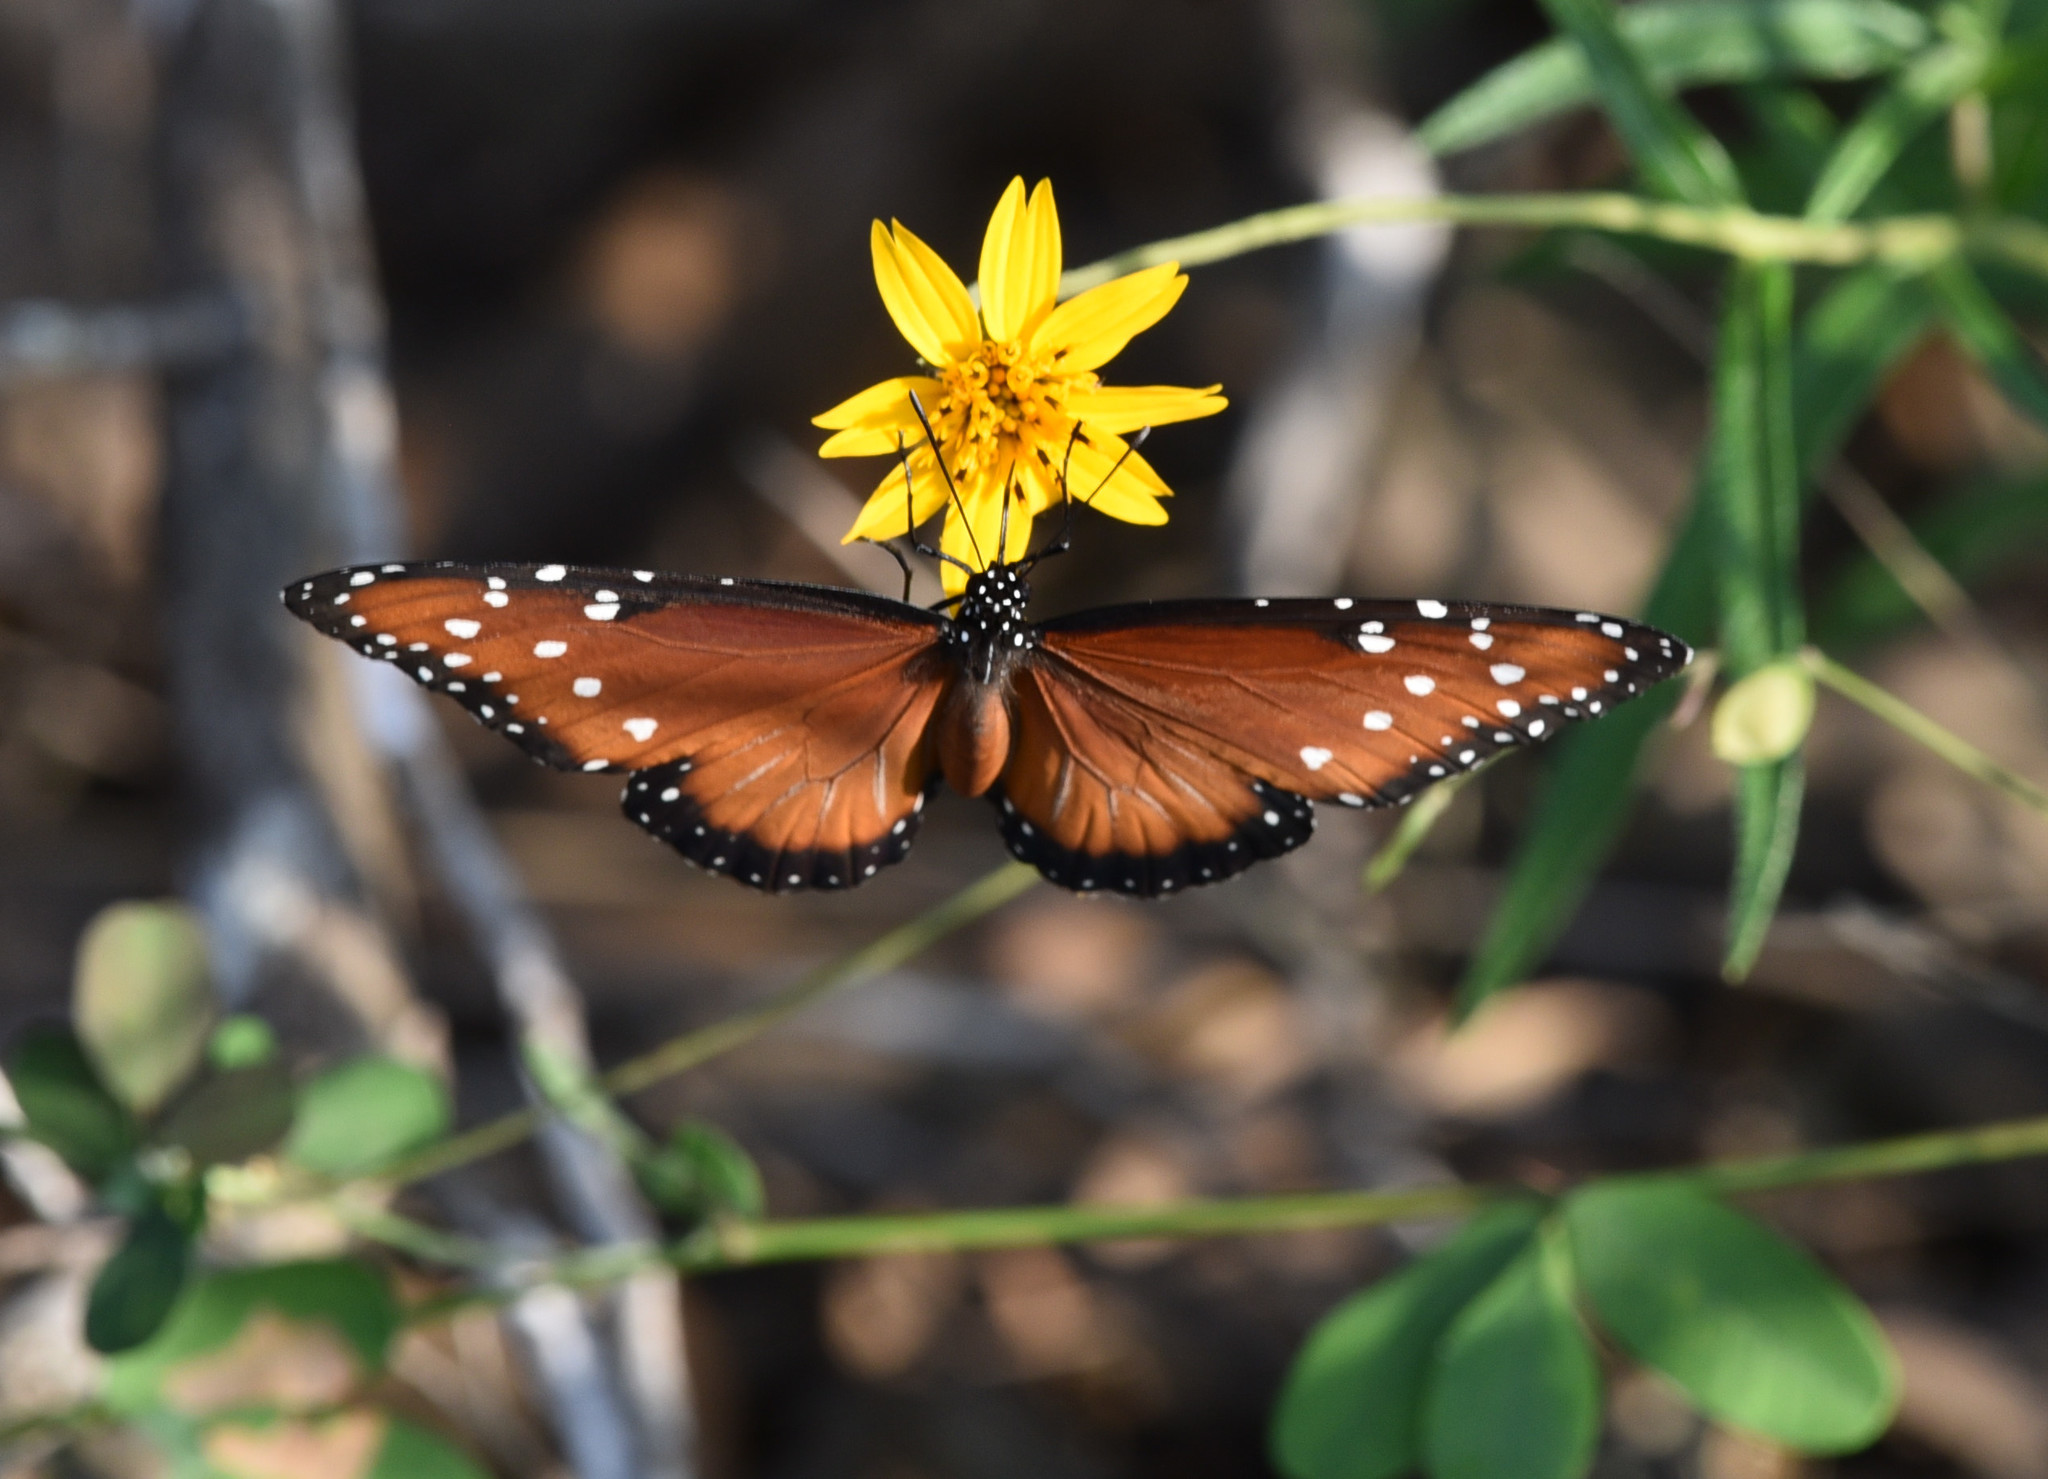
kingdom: Animalia
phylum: Arthropoda
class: Insecta
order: Lepidoptera
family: Nymphalidae
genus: Danaus
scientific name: Danaus gilippus
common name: Queen
